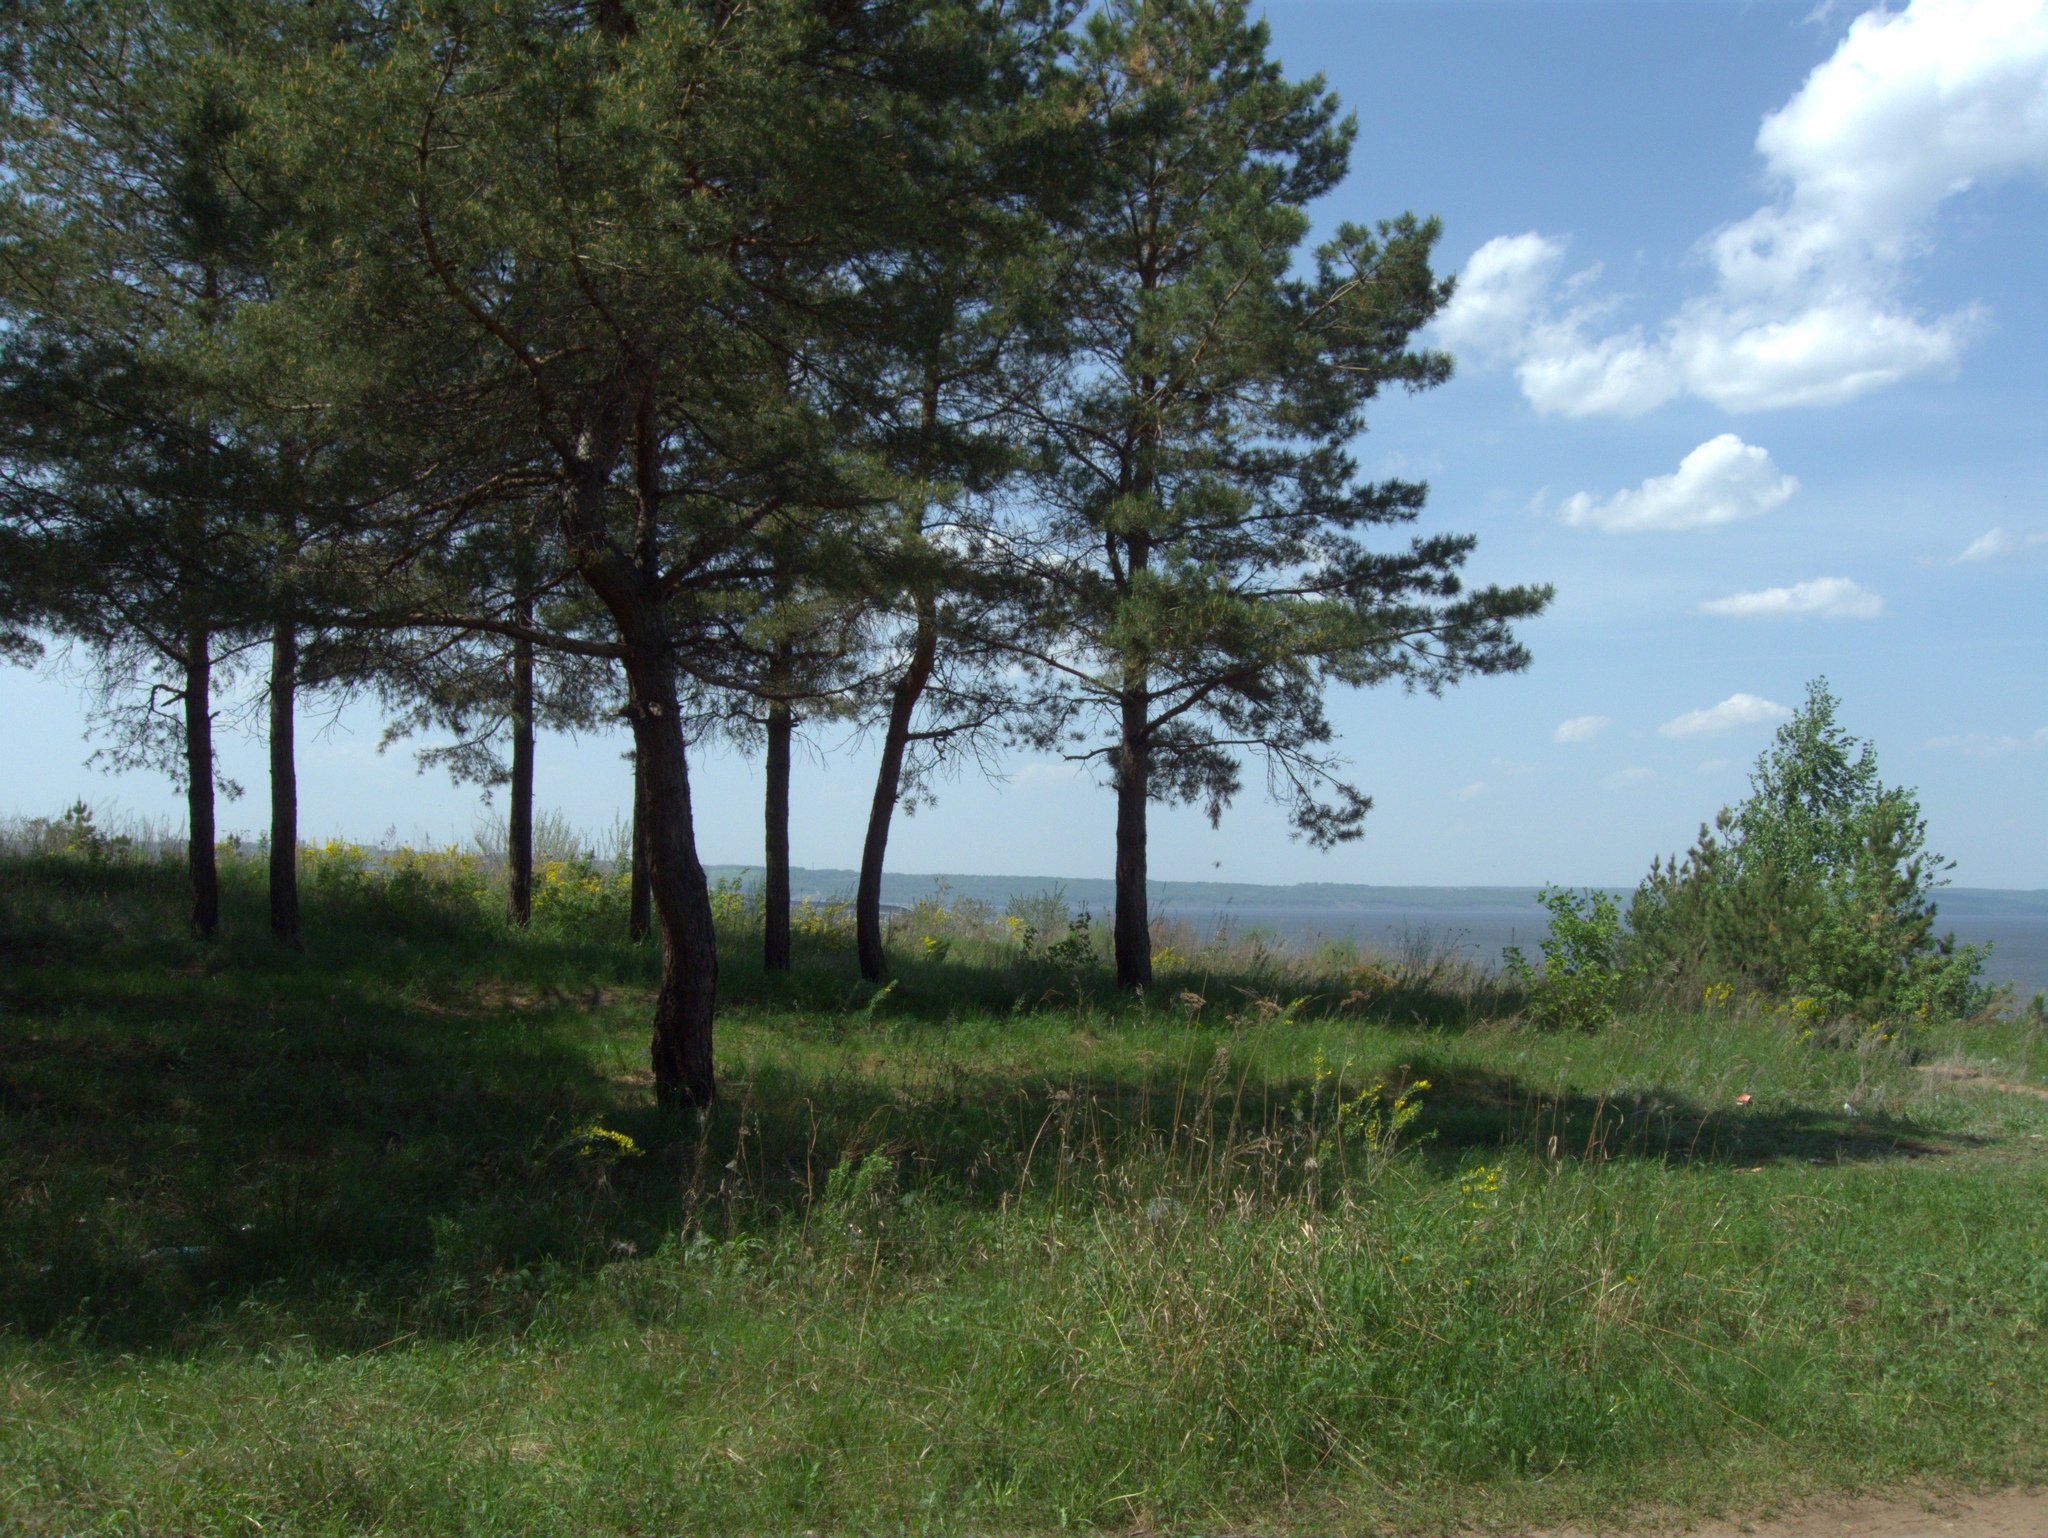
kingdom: Plantae
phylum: Tracheophyta
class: Pinopsida
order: Pinales
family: Pinaceae
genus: Pinus
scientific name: Pinus sylvestris
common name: Scots pine
